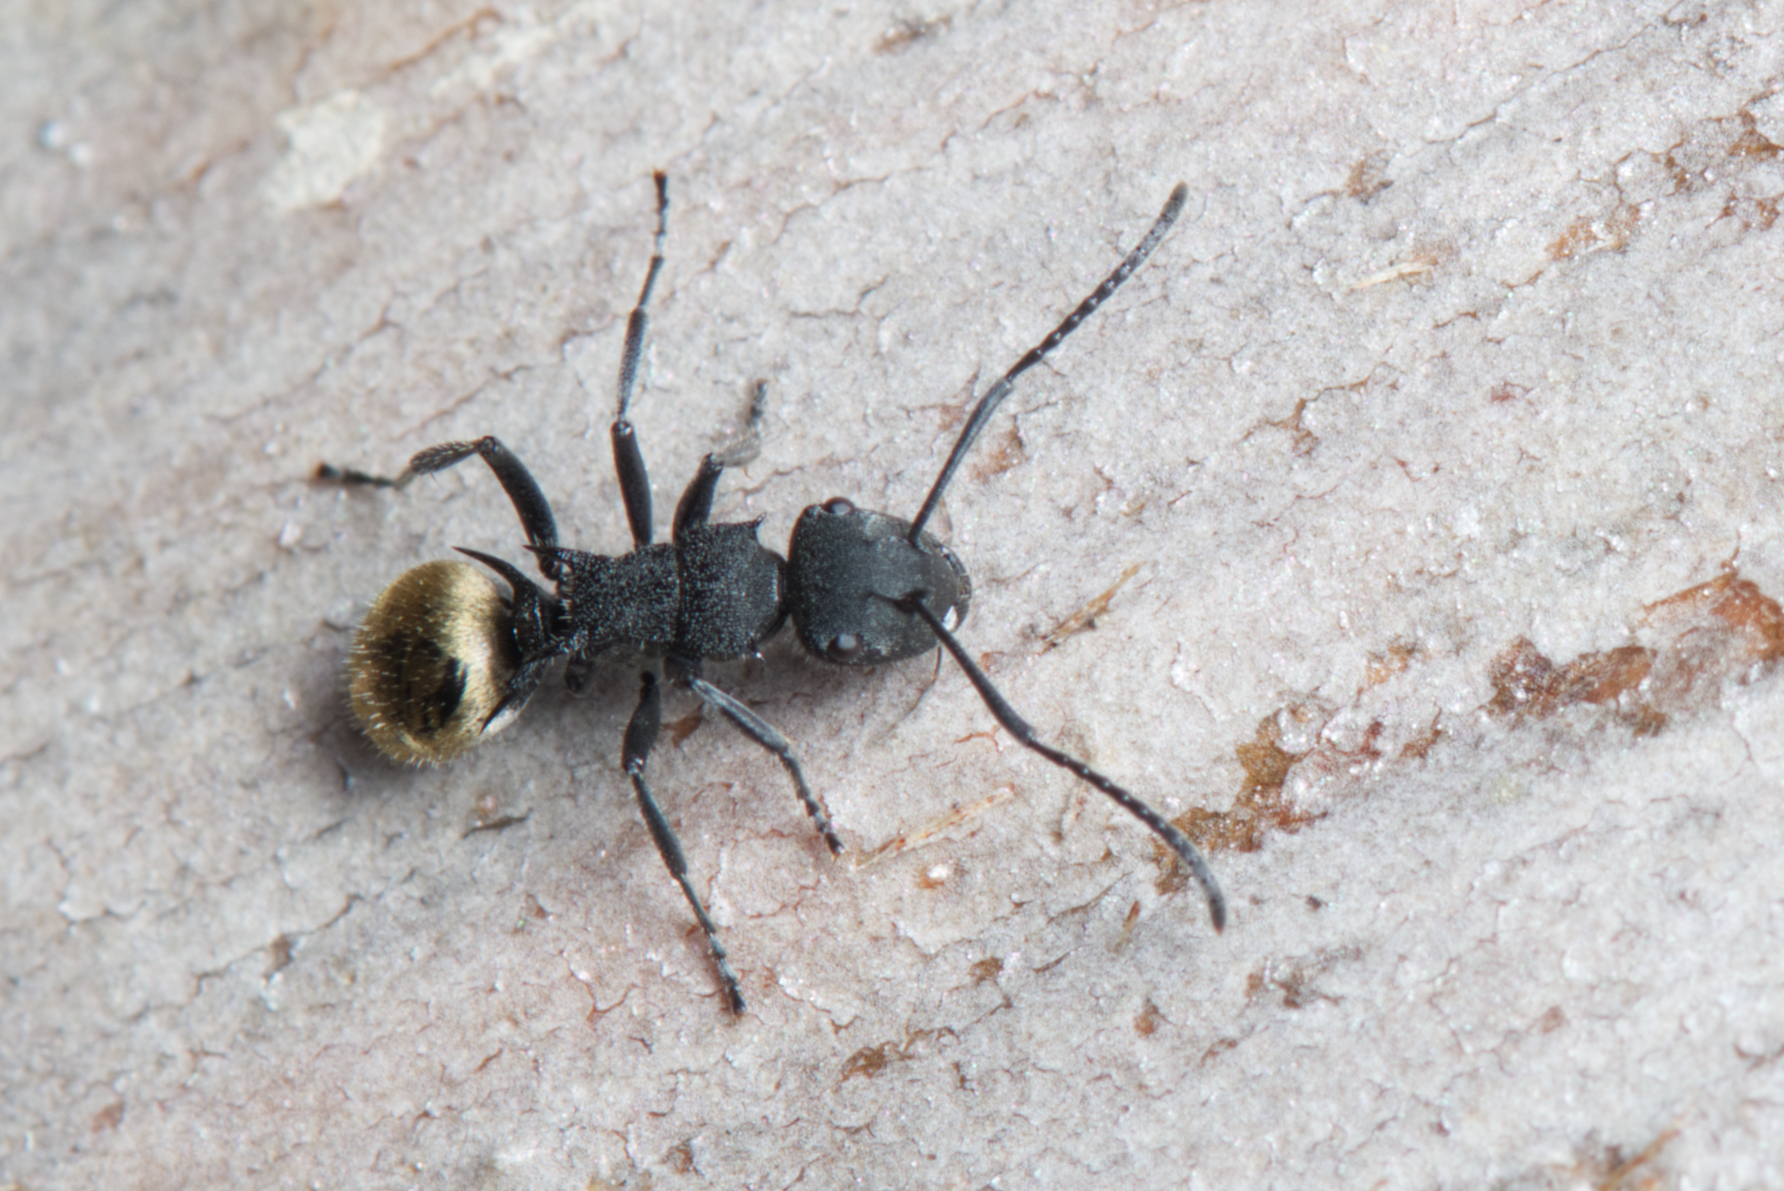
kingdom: Animalia
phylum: Arthropoda
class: Insecta
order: Hymenoptera
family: Formicidae
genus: Polyrhachis
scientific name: Polyrhachis erato
